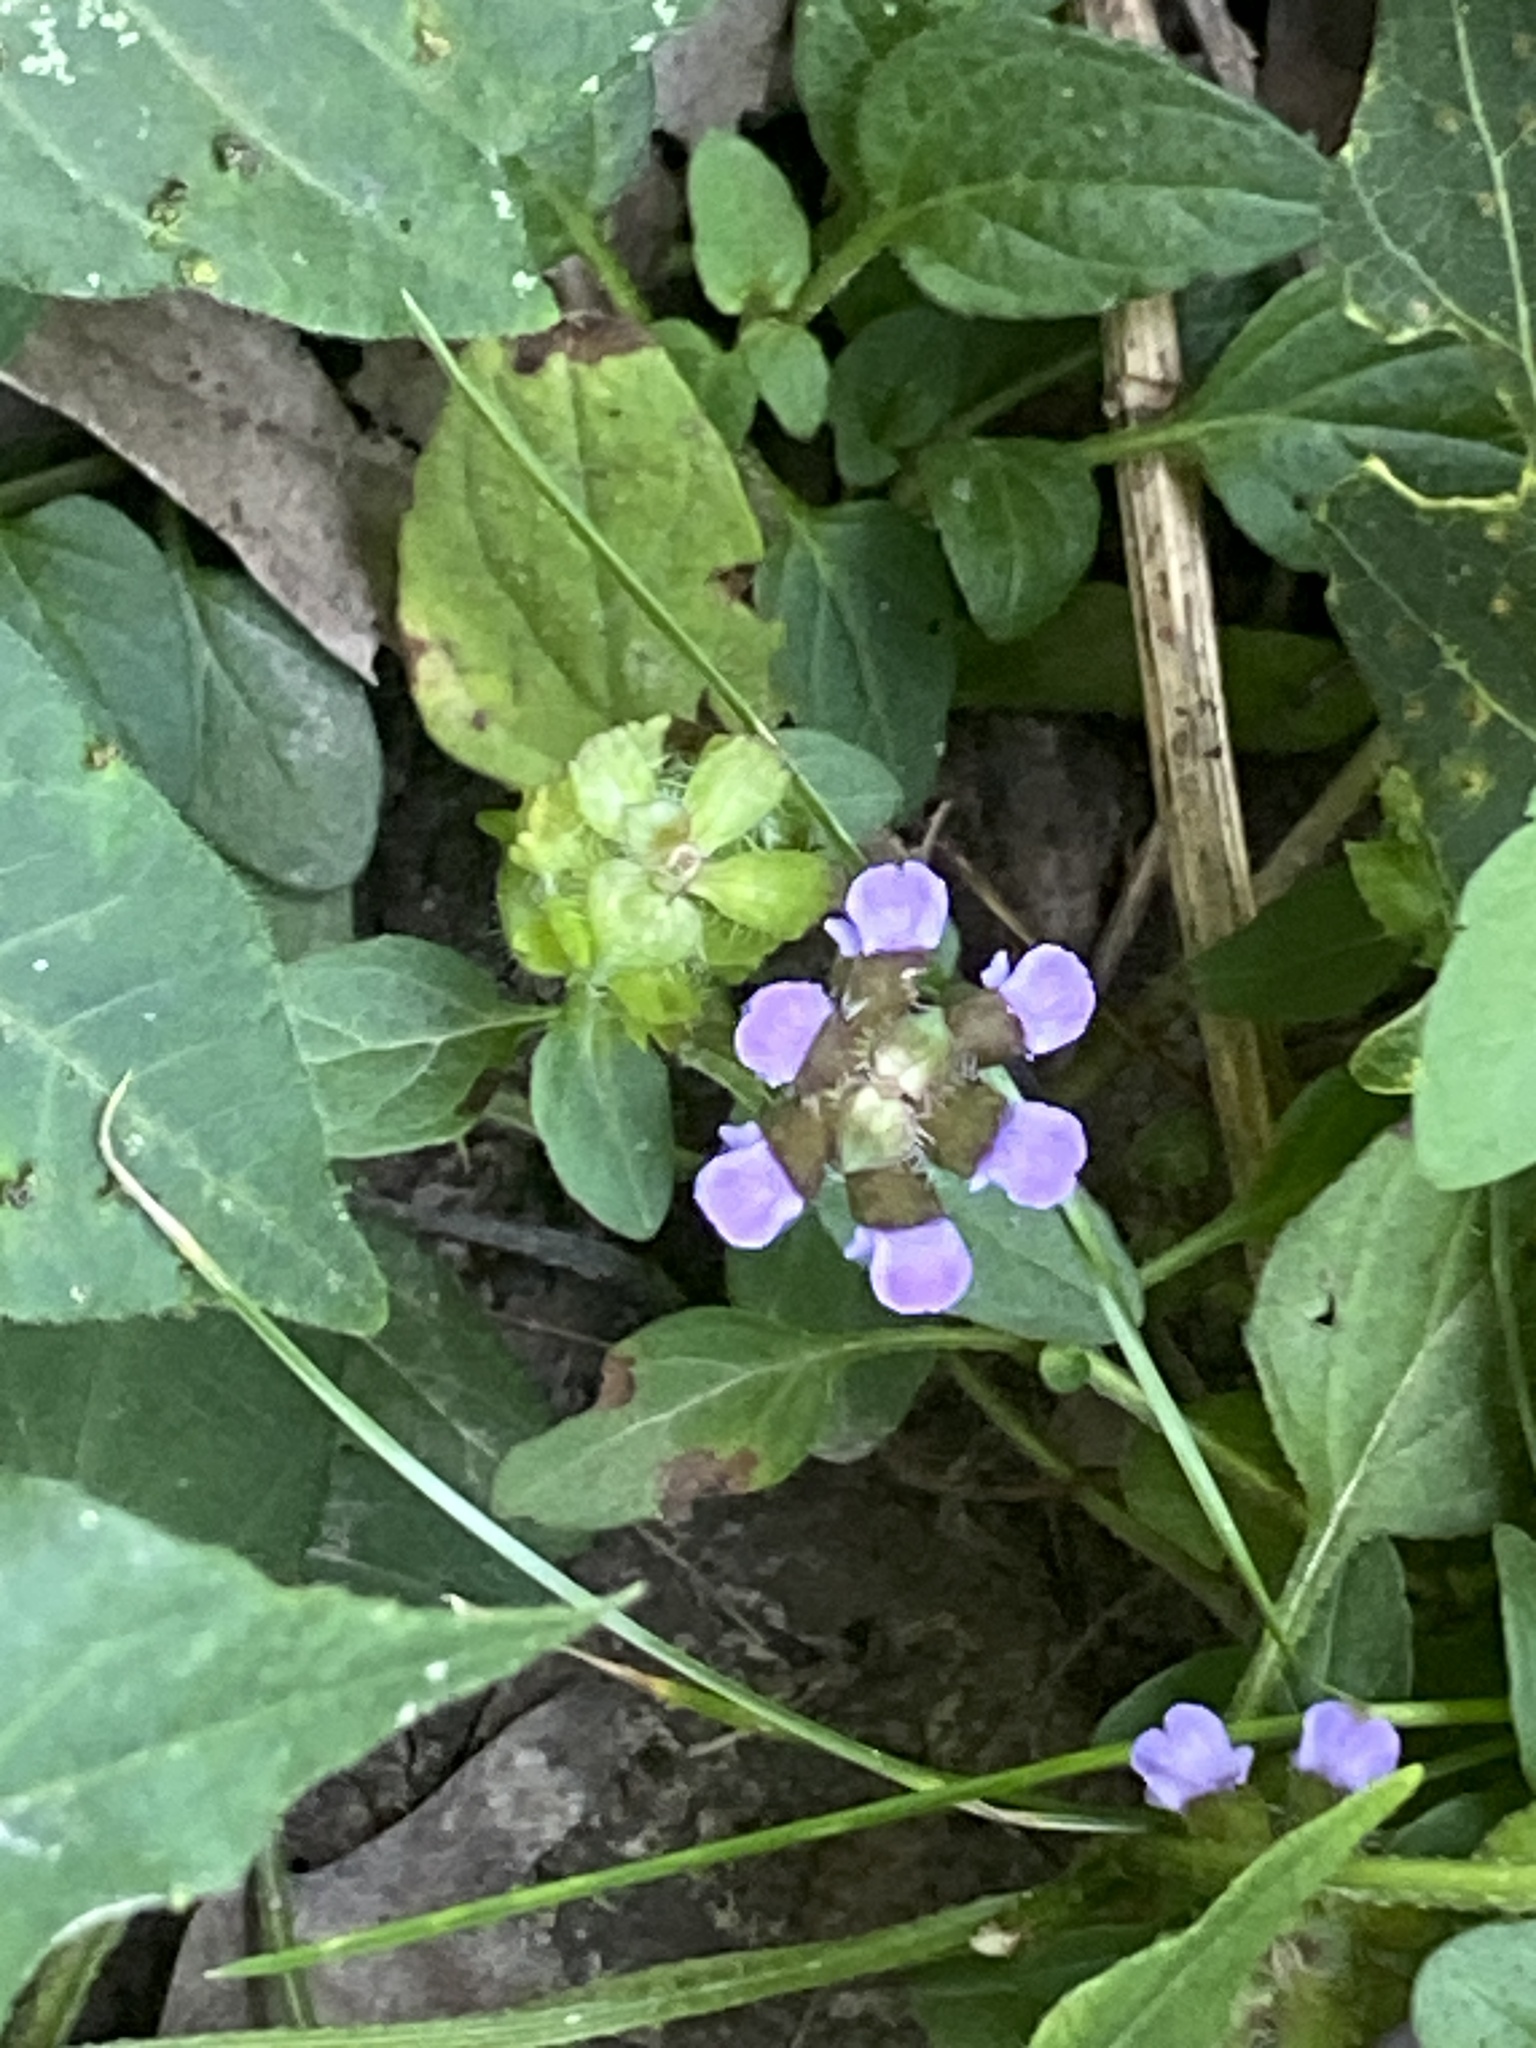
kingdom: Plantae
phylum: Tracheophyta
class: Magnoliopsida
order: Lamiales
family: Lamiaceae
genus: Prunella
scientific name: Prunella vulgaris
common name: Heal-all
